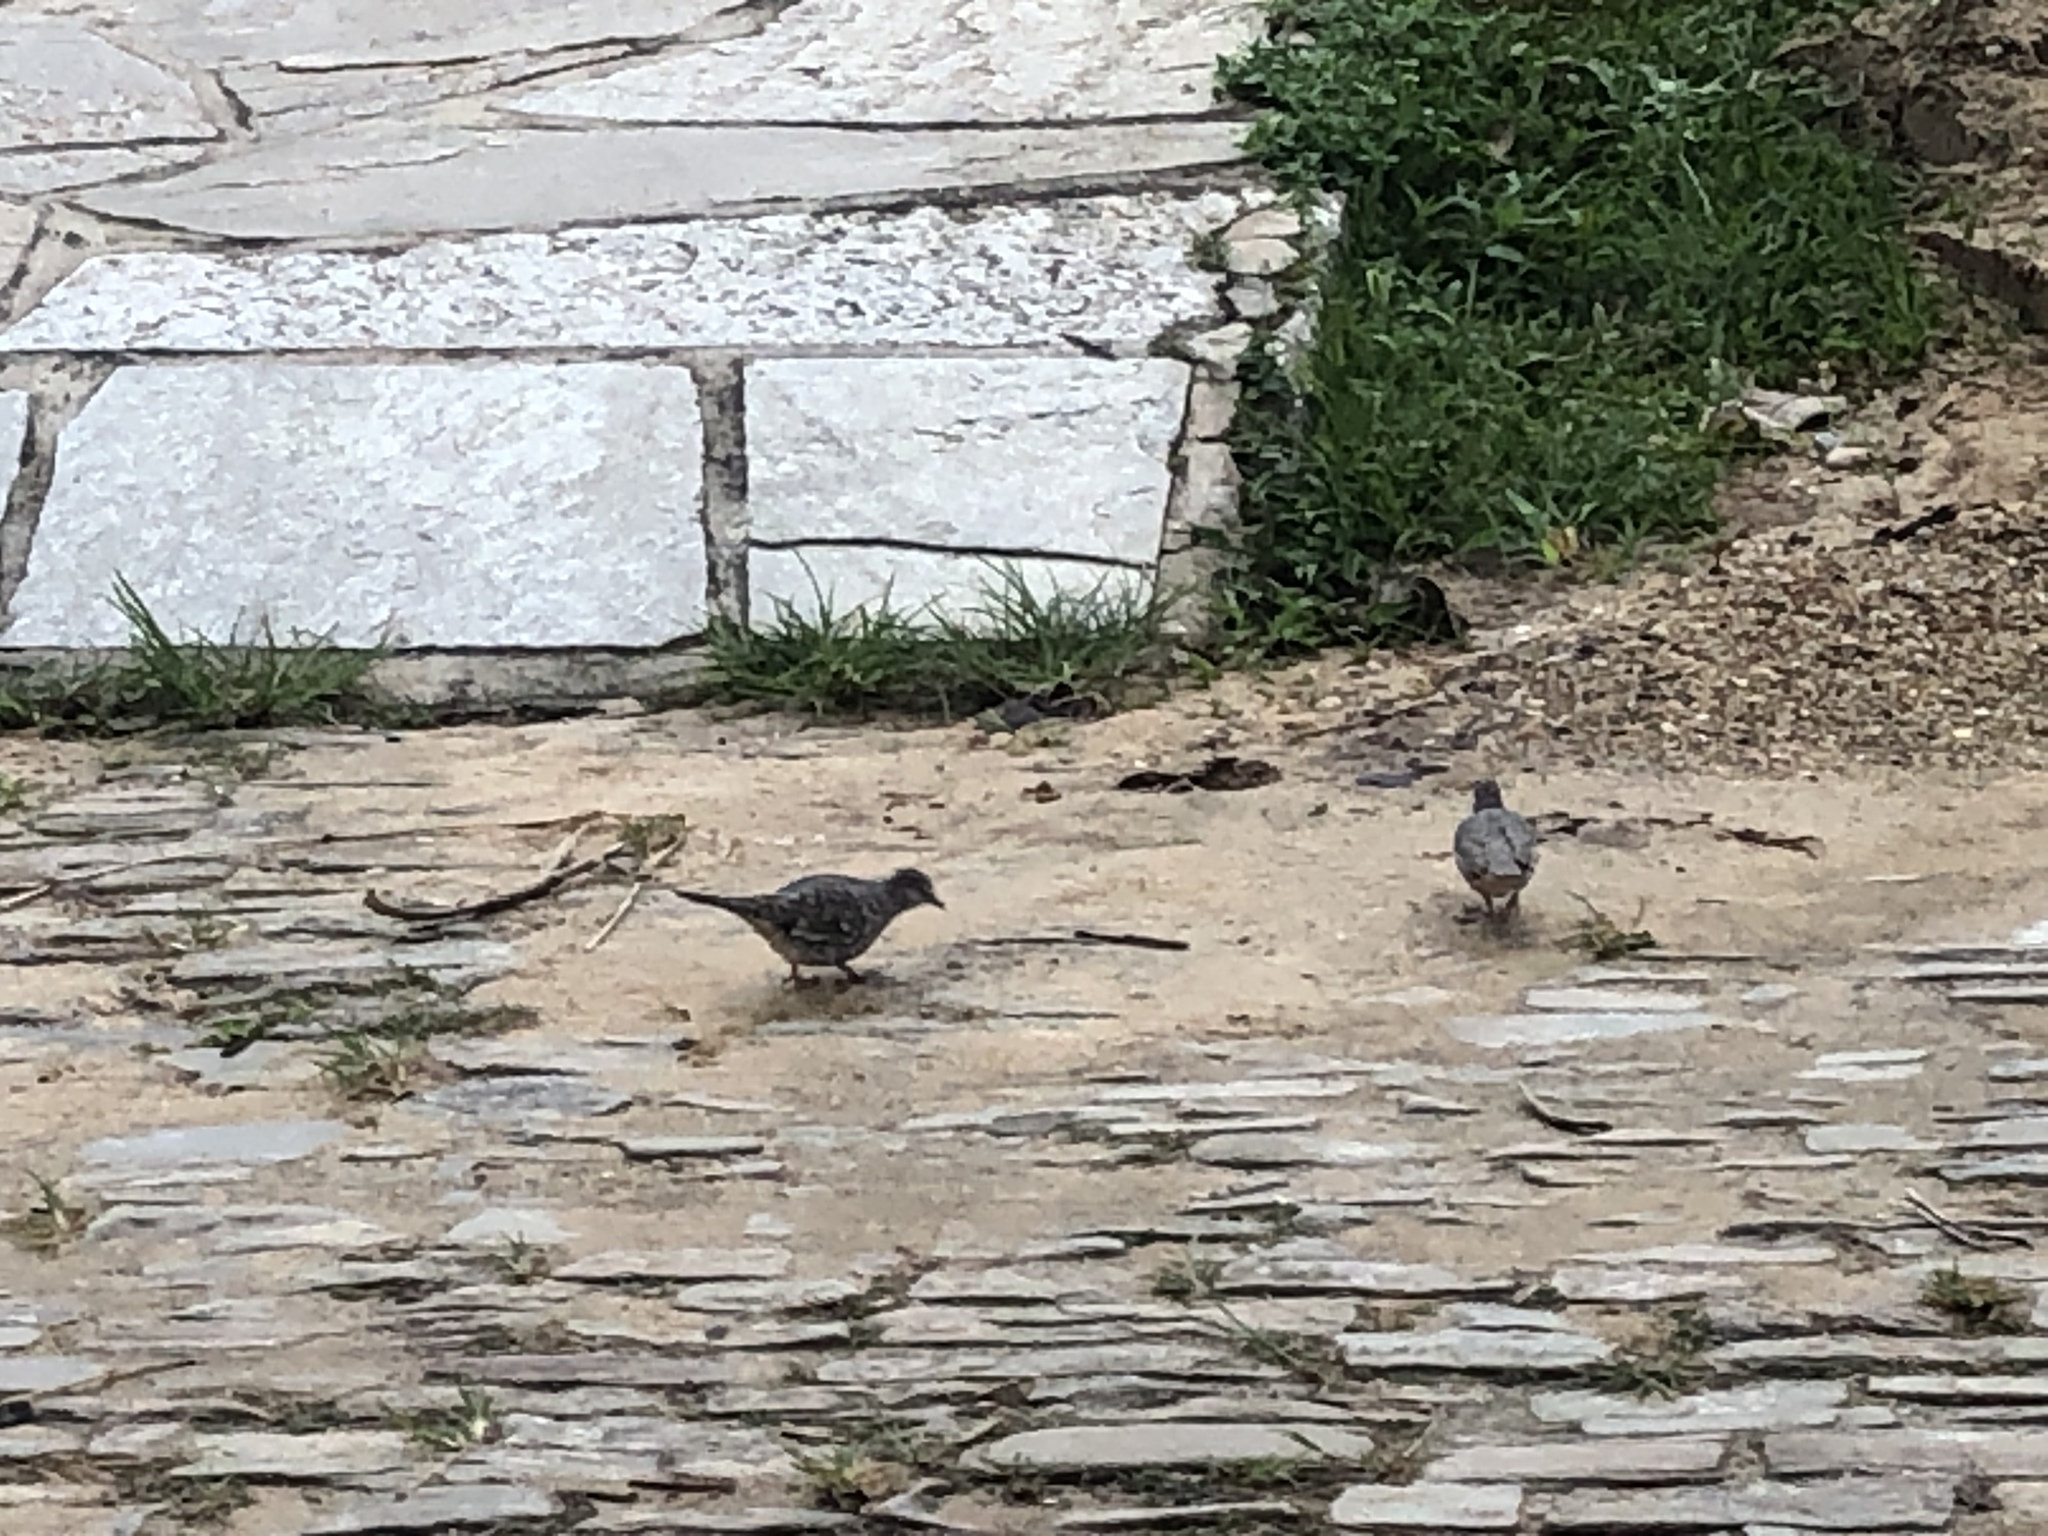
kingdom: Animalia
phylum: Chordata
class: Aves
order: Columbiformes
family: Columbidae
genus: Columbina
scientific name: Columbina squammata
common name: Scaled dove
